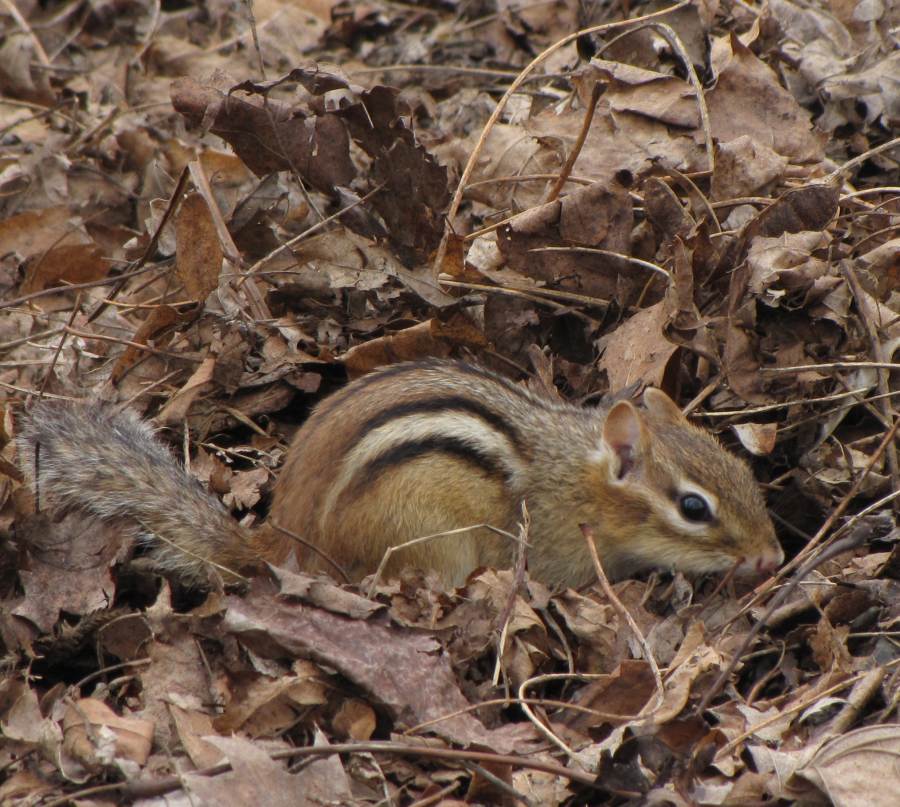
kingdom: Animalia
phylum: Chordata
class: Mammalia
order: Rodentia
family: Sciuridae
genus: Tamias
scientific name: Tamias striatus
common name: Eastern chipmunk
